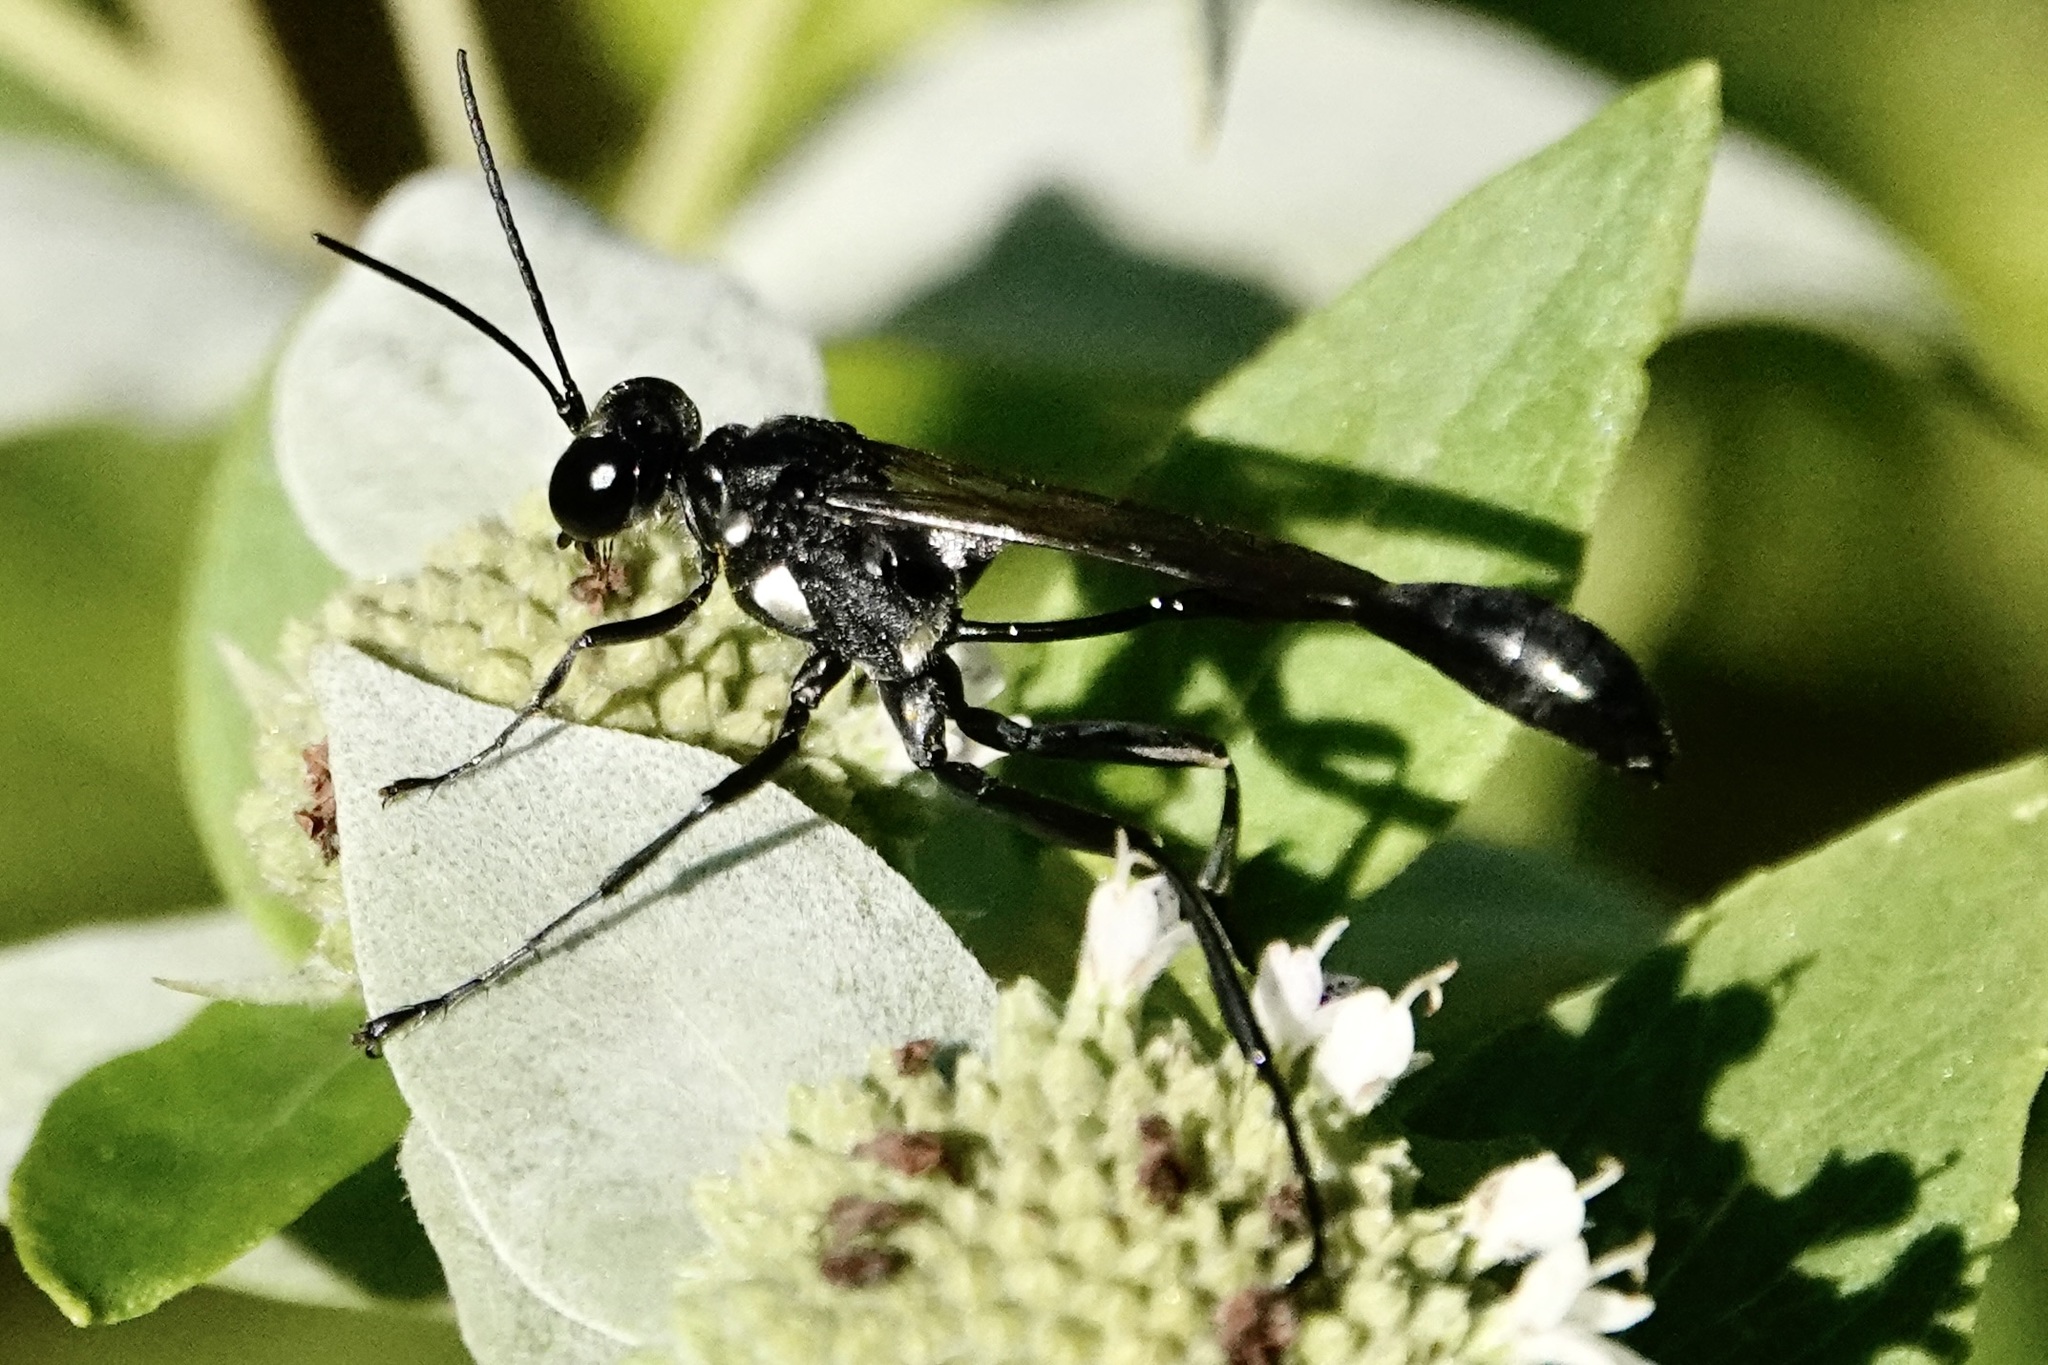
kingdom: Animalia
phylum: Arthropoda
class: Insecta
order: Hymenoptera
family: Sphecidae
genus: Eremnophila
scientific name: Eremnophila aureonotata
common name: Gold-marked thread-waisted wasp
